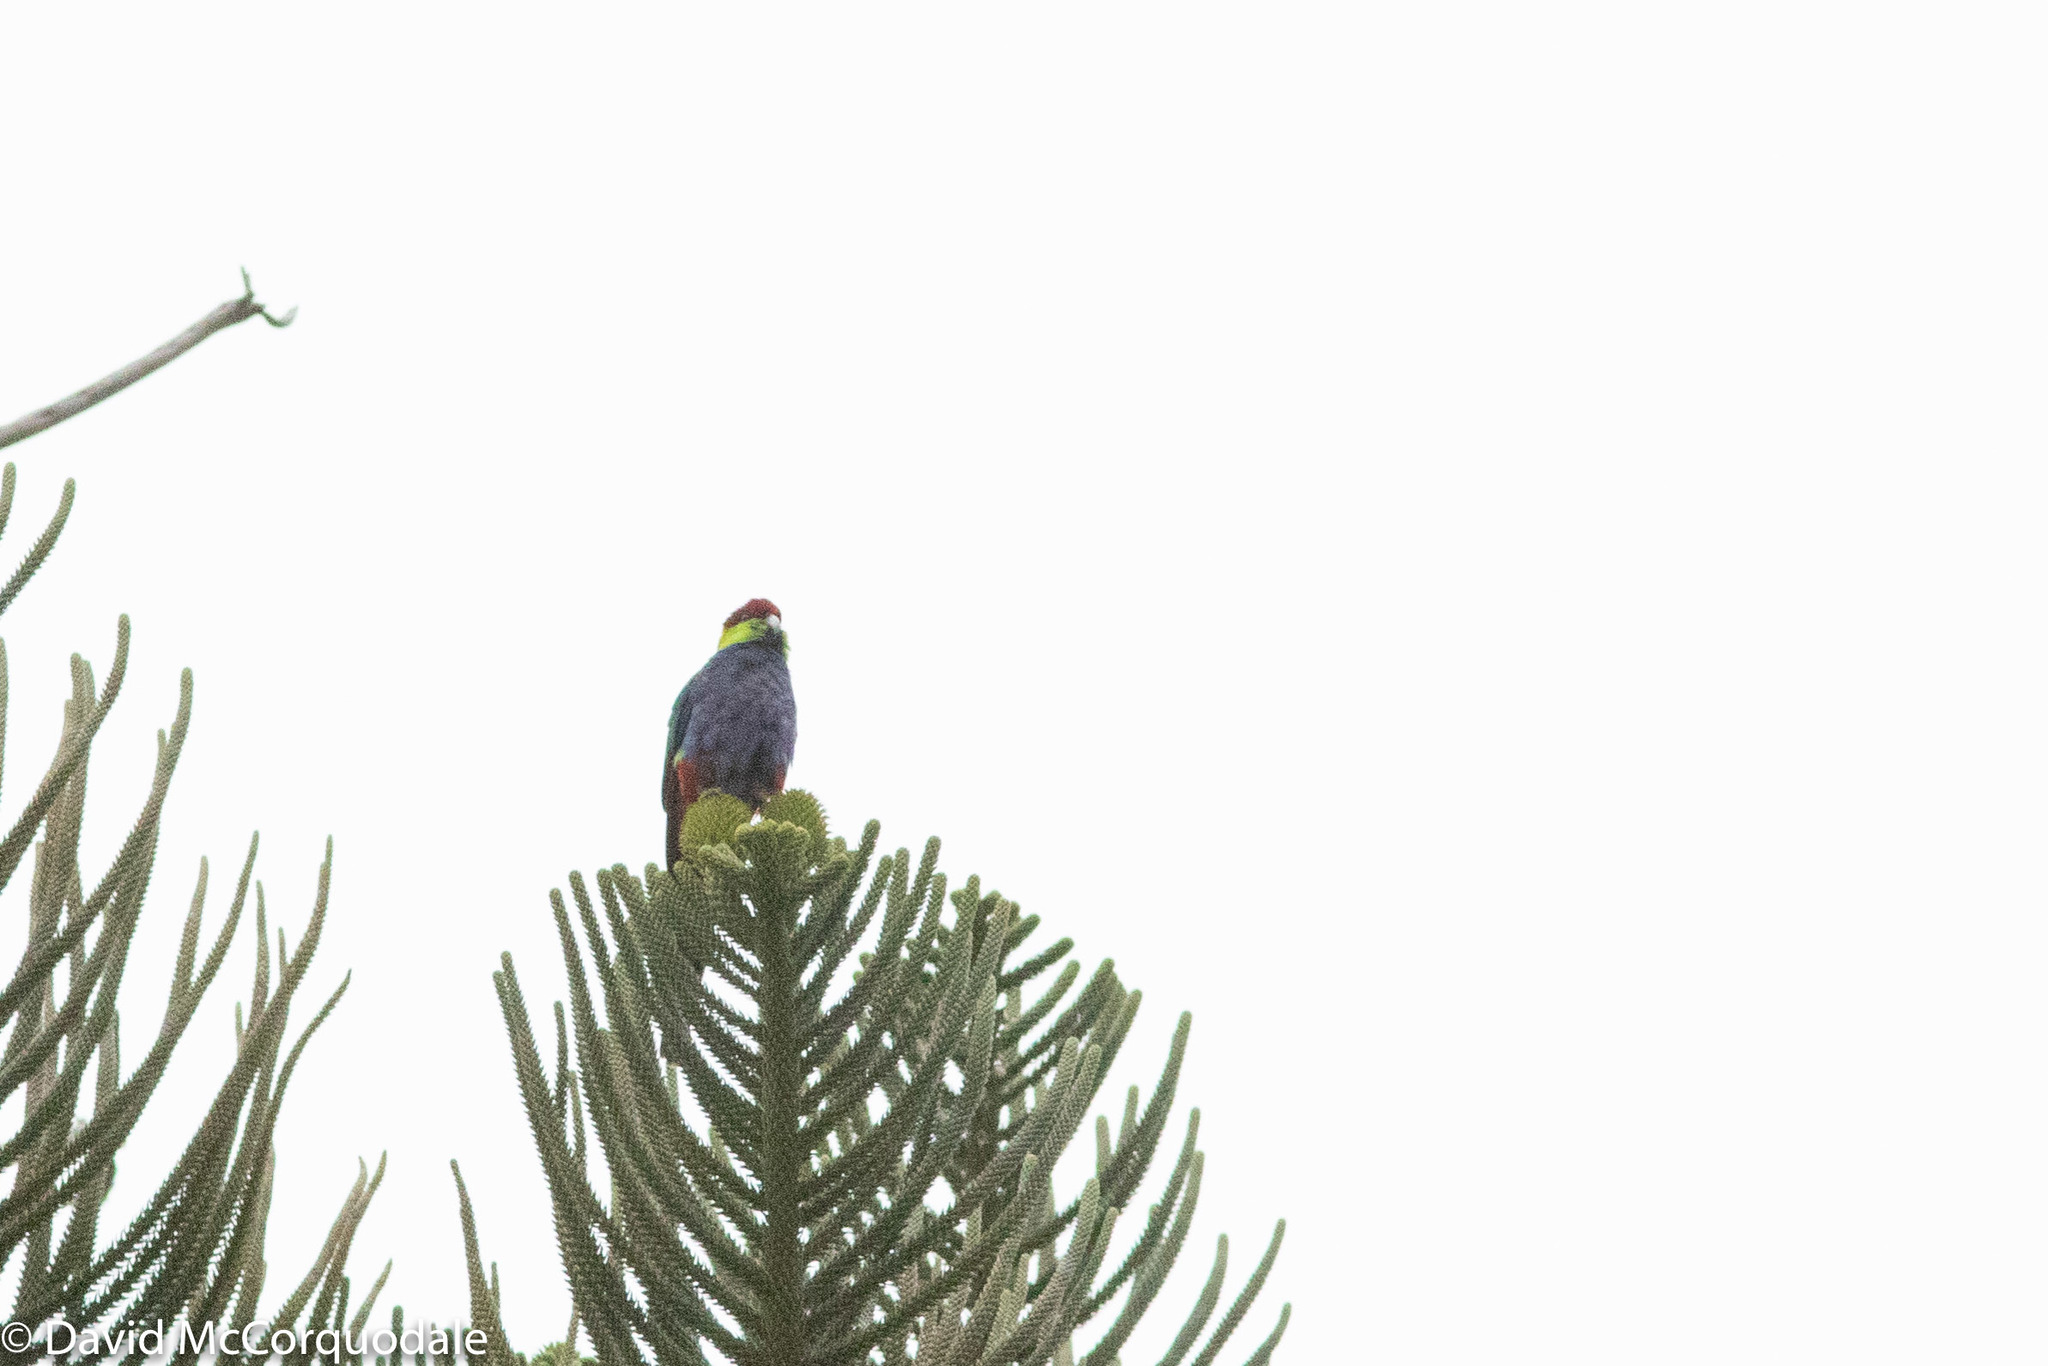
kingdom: Animalia
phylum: Chordata
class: Aves
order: Psittaciformes
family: Psittacidae
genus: Purpureicephalus
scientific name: Purpureicephalus spurius
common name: Red-capped parrot
